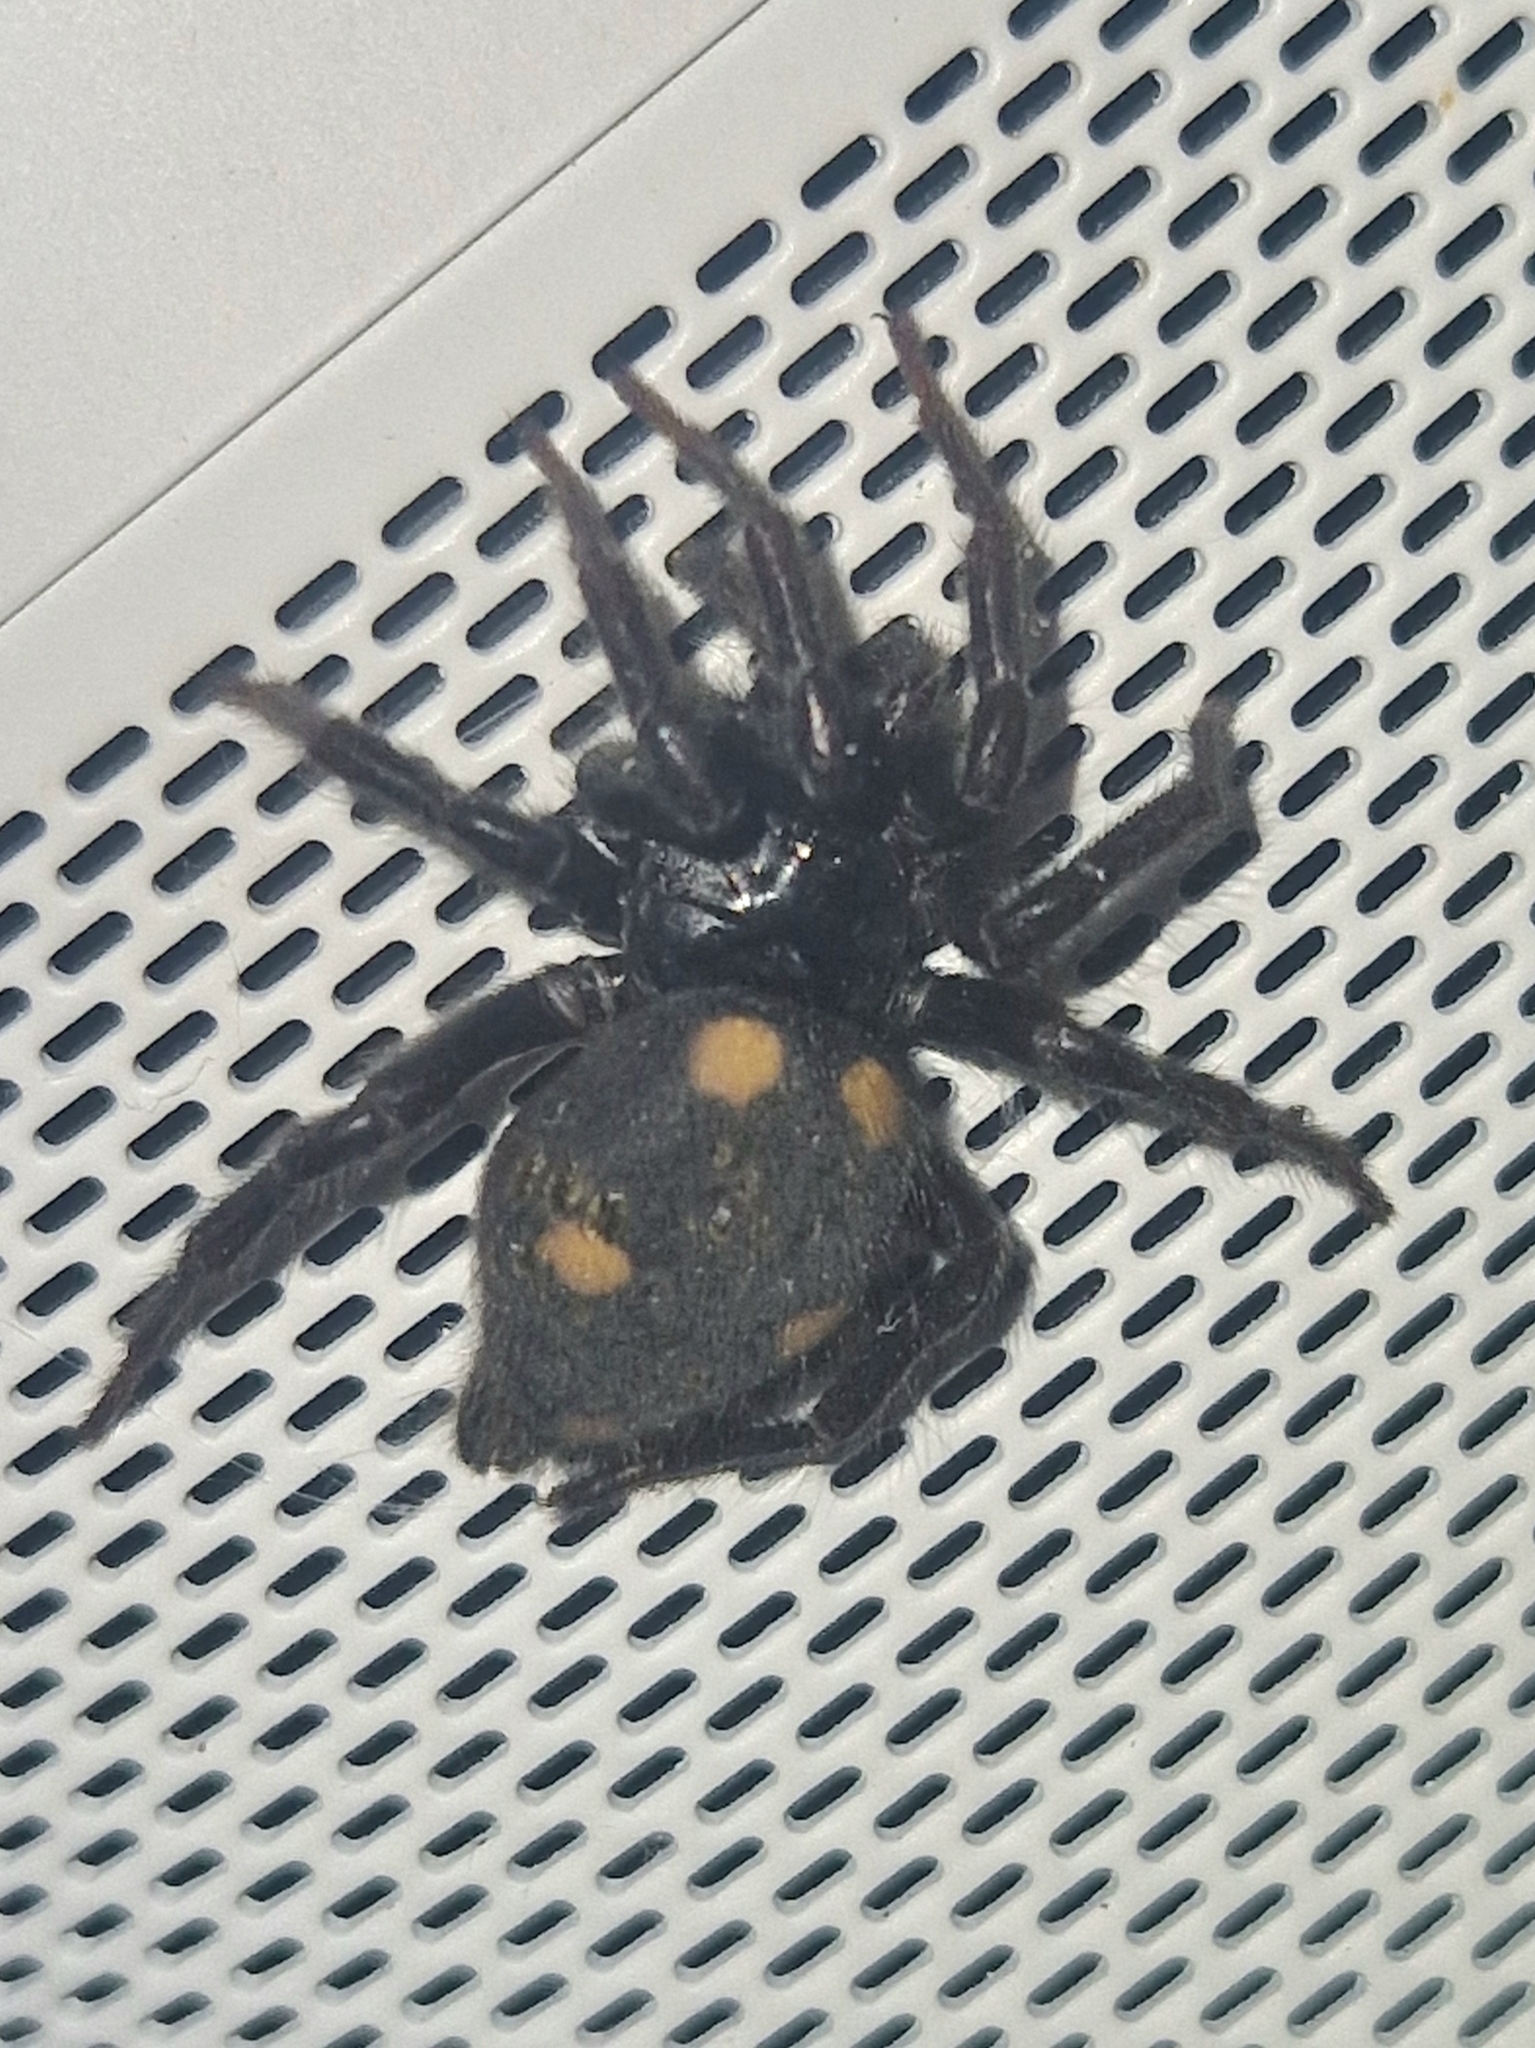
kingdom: Animalia
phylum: Arthropoda
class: Arachnida
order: Araneae
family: Oecobiidae
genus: Uroctea
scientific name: Uroctea durandi
